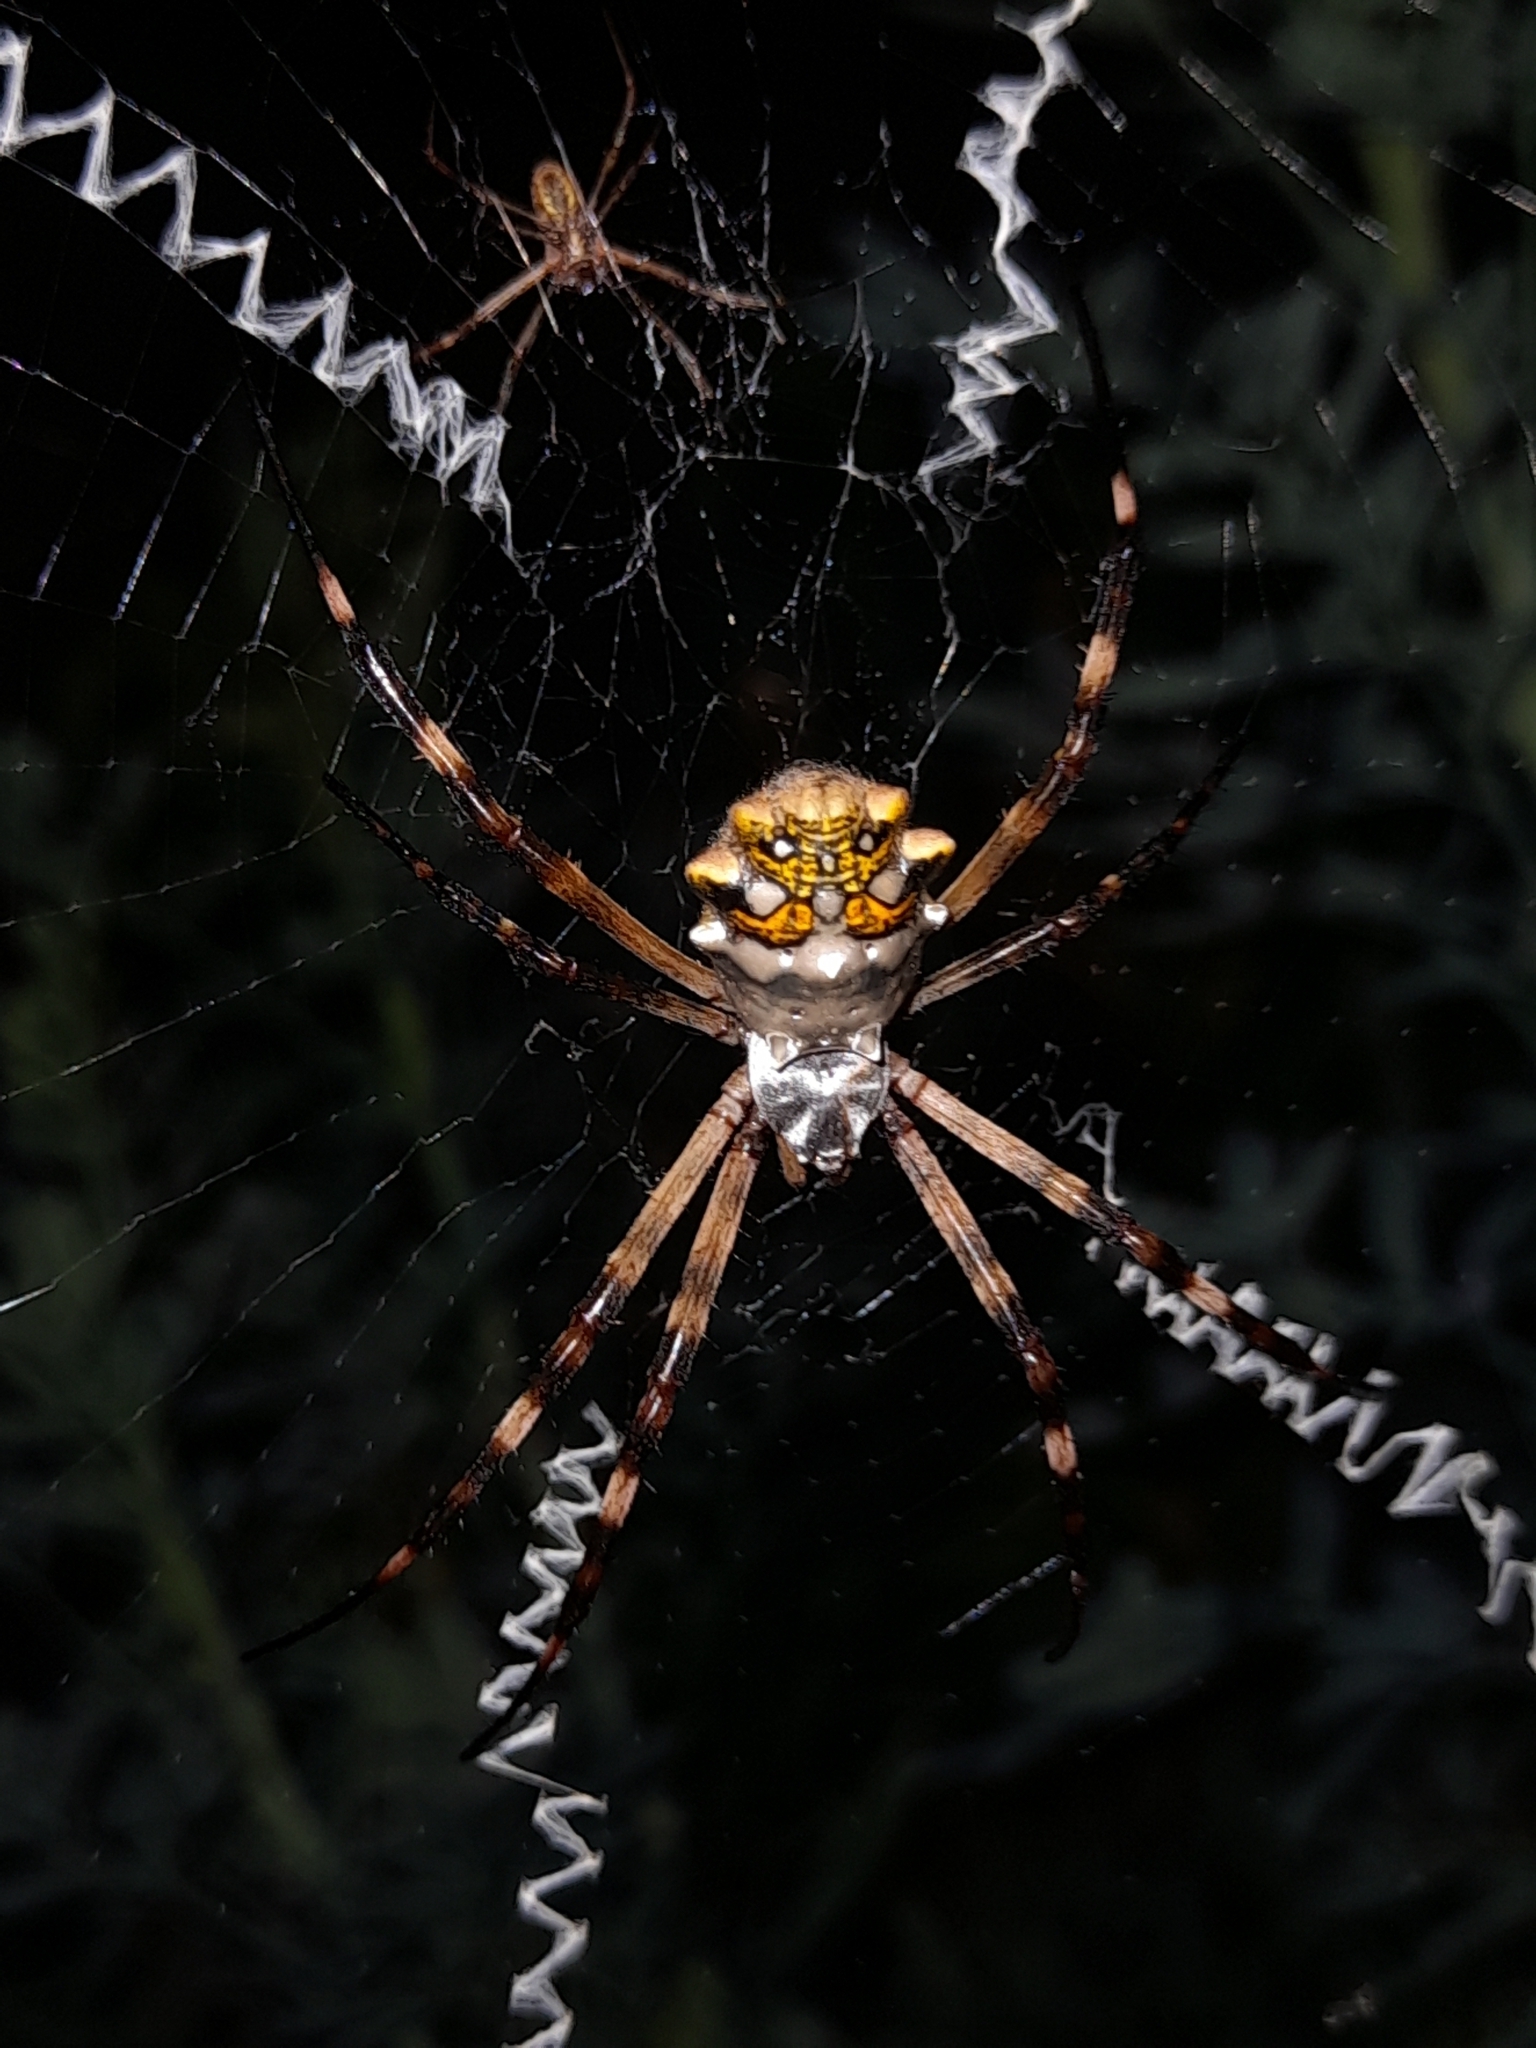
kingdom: Animalia
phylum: Arthropoda
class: Arachnida
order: Araneae
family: Araneidae
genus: Argiope
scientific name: Argiope argentata
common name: Orb weavers
